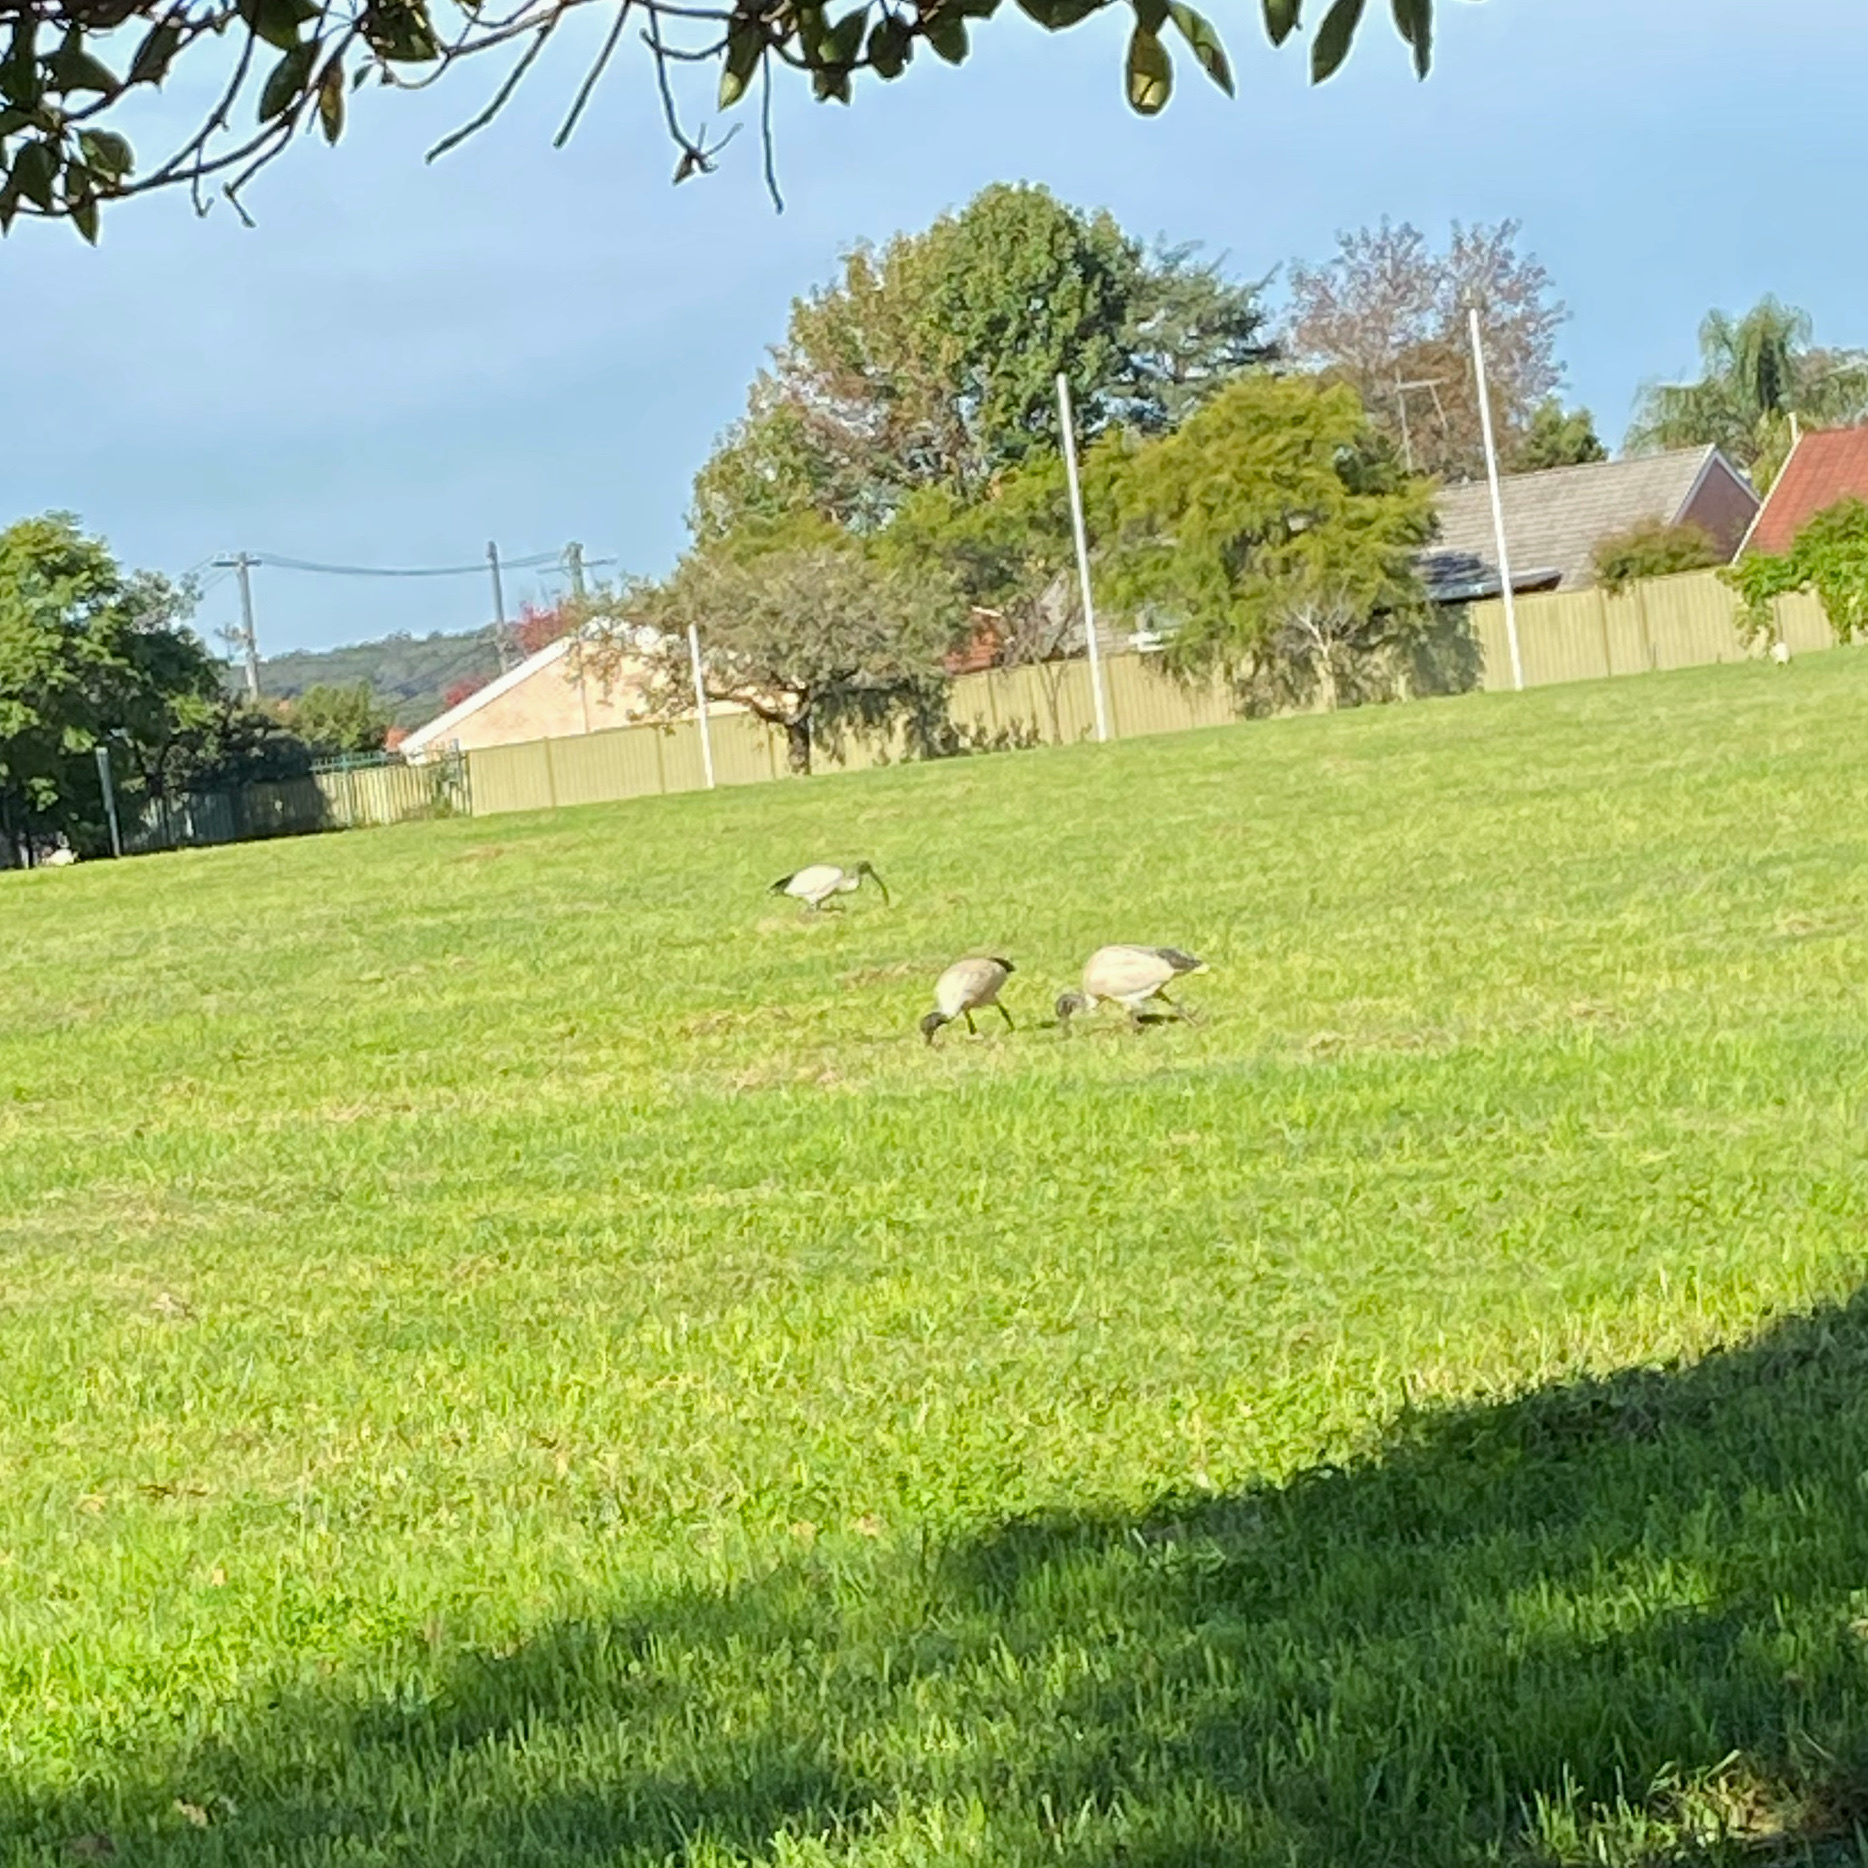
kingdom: Animalia
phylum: Chordata
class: Aves
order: Pelecaniformes
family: Threskiornithidae
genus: Threskiornis
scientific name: Threskiornis molucca
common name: Australian white ibis
